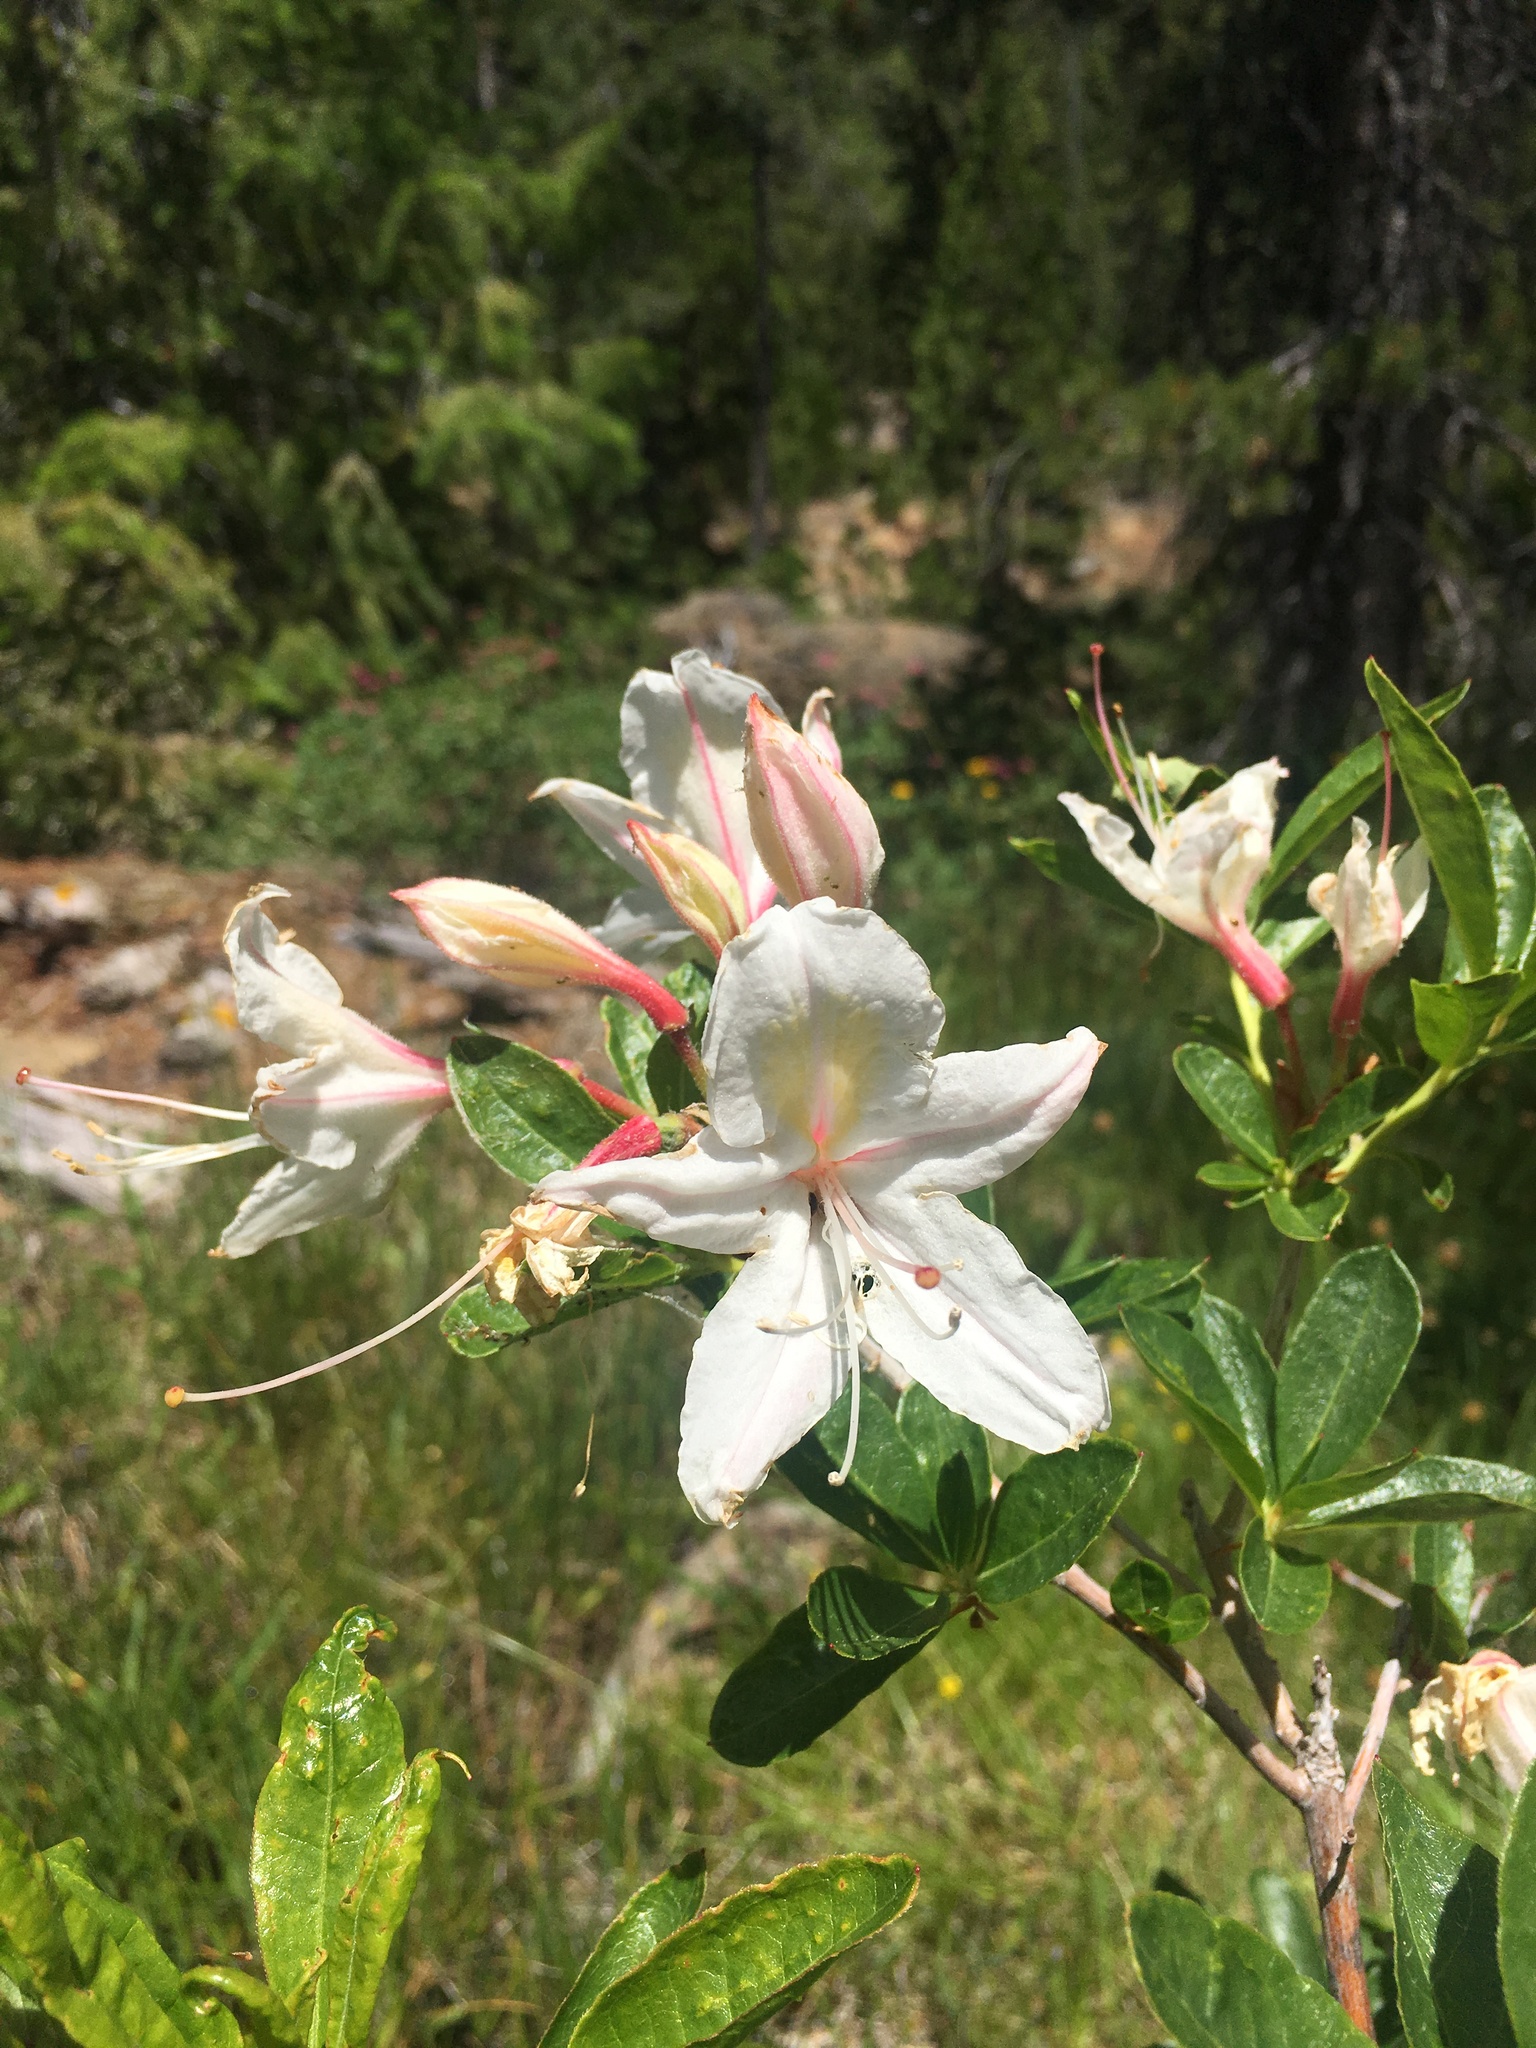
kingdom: Plantae
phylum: Tracheophyta
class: Magnoliopsida
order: Ericales
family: Ericaceae
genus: Rhododendron
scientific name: Rhododendron occidentale
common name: Western azalea
